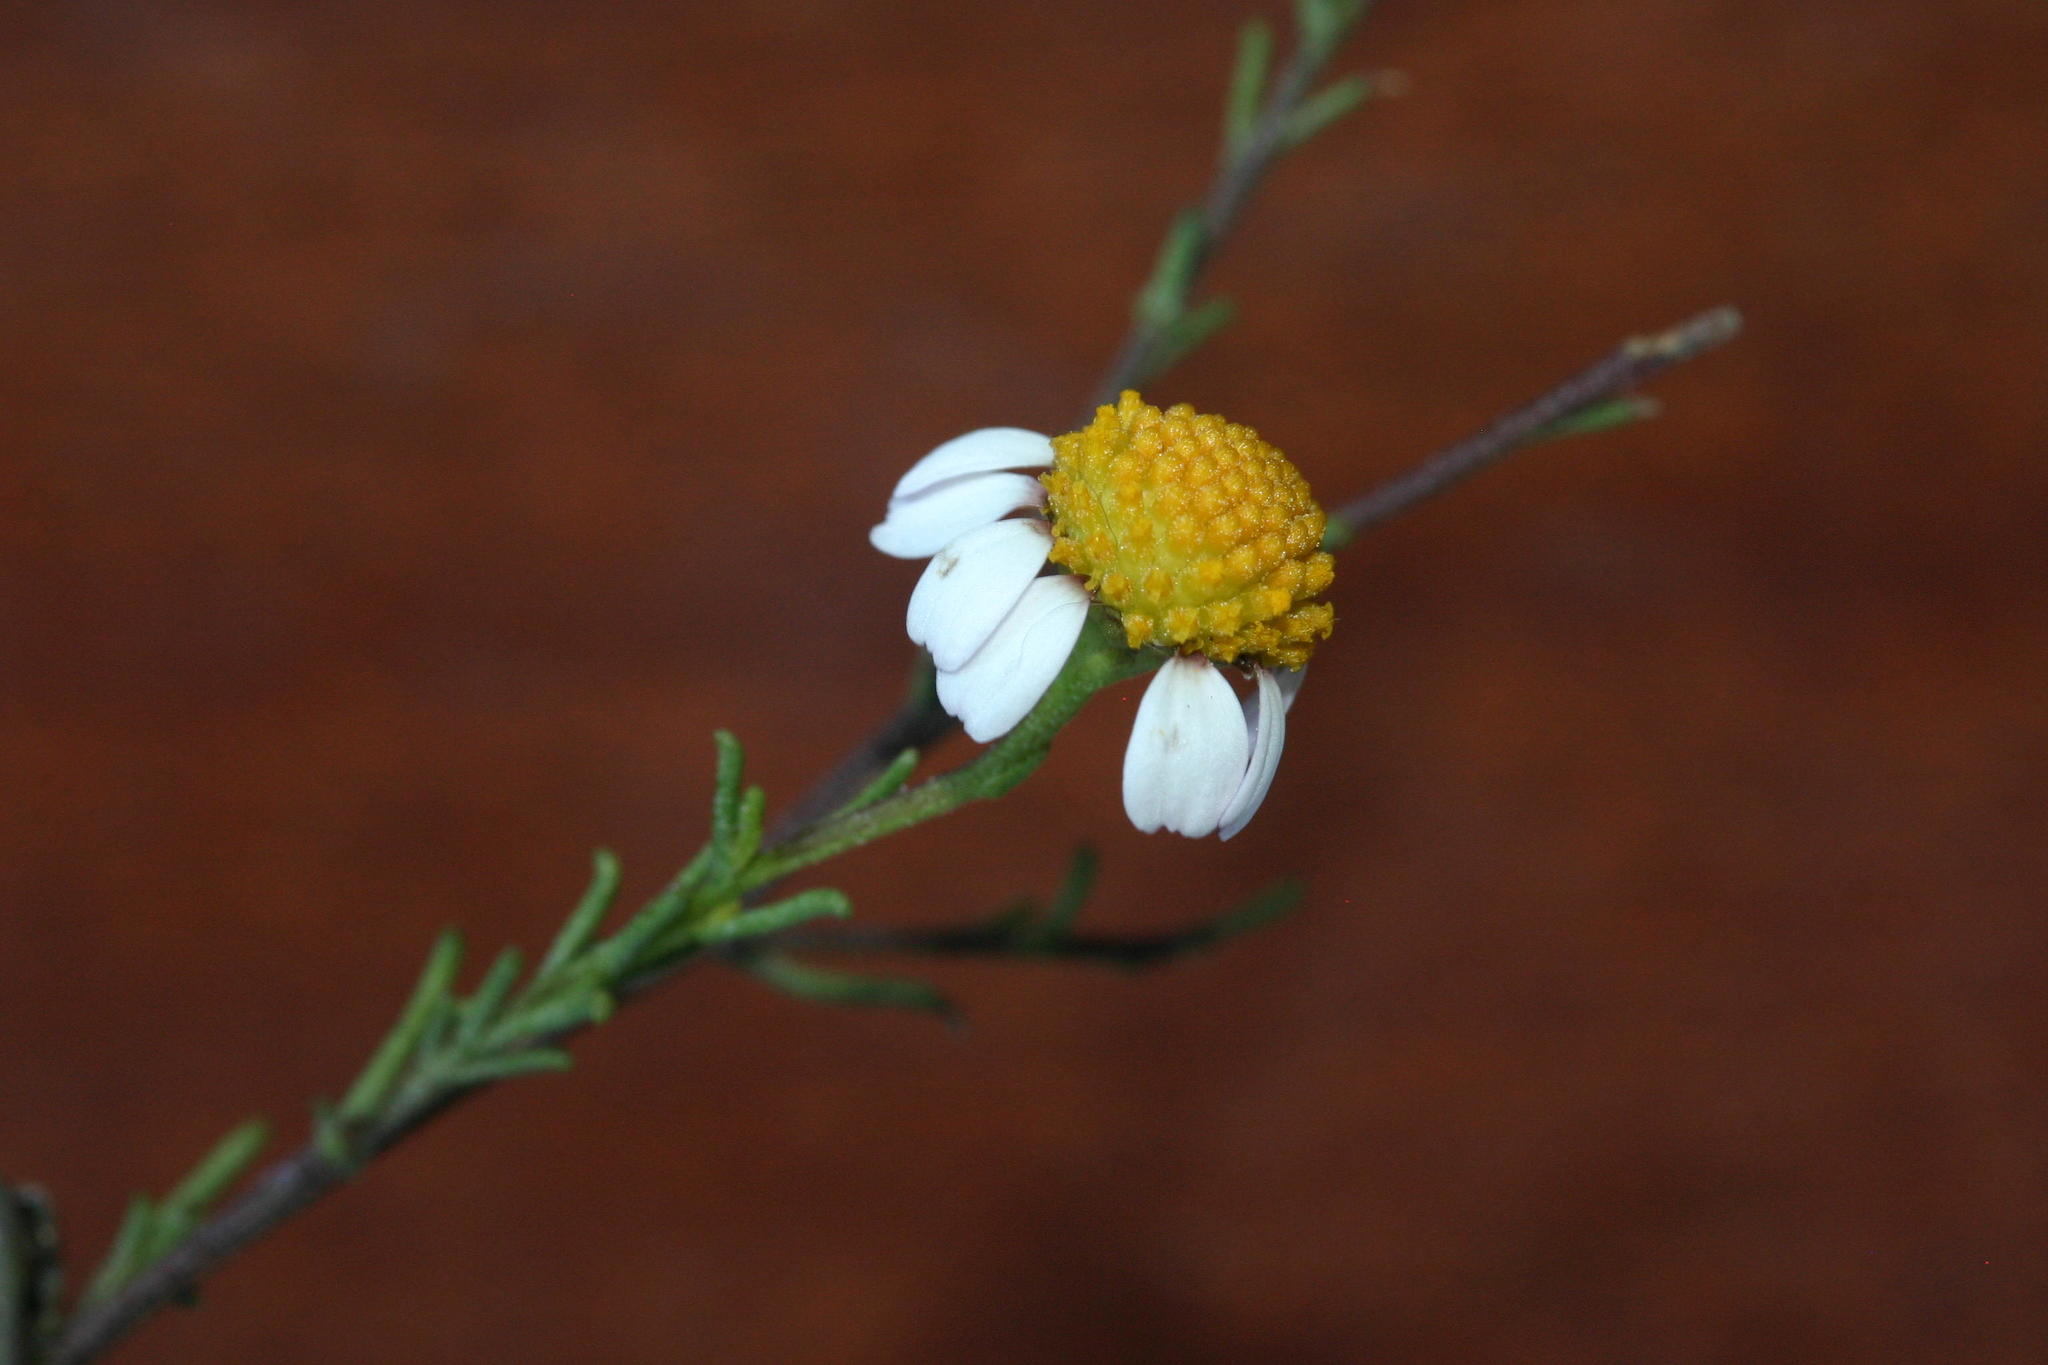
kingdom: Plantae
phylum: Tracheophyta
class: Magnoliopsida
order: Asterales
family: Asteraceae
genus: Cymbopappus
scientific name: Cymbopappus adenosolen
